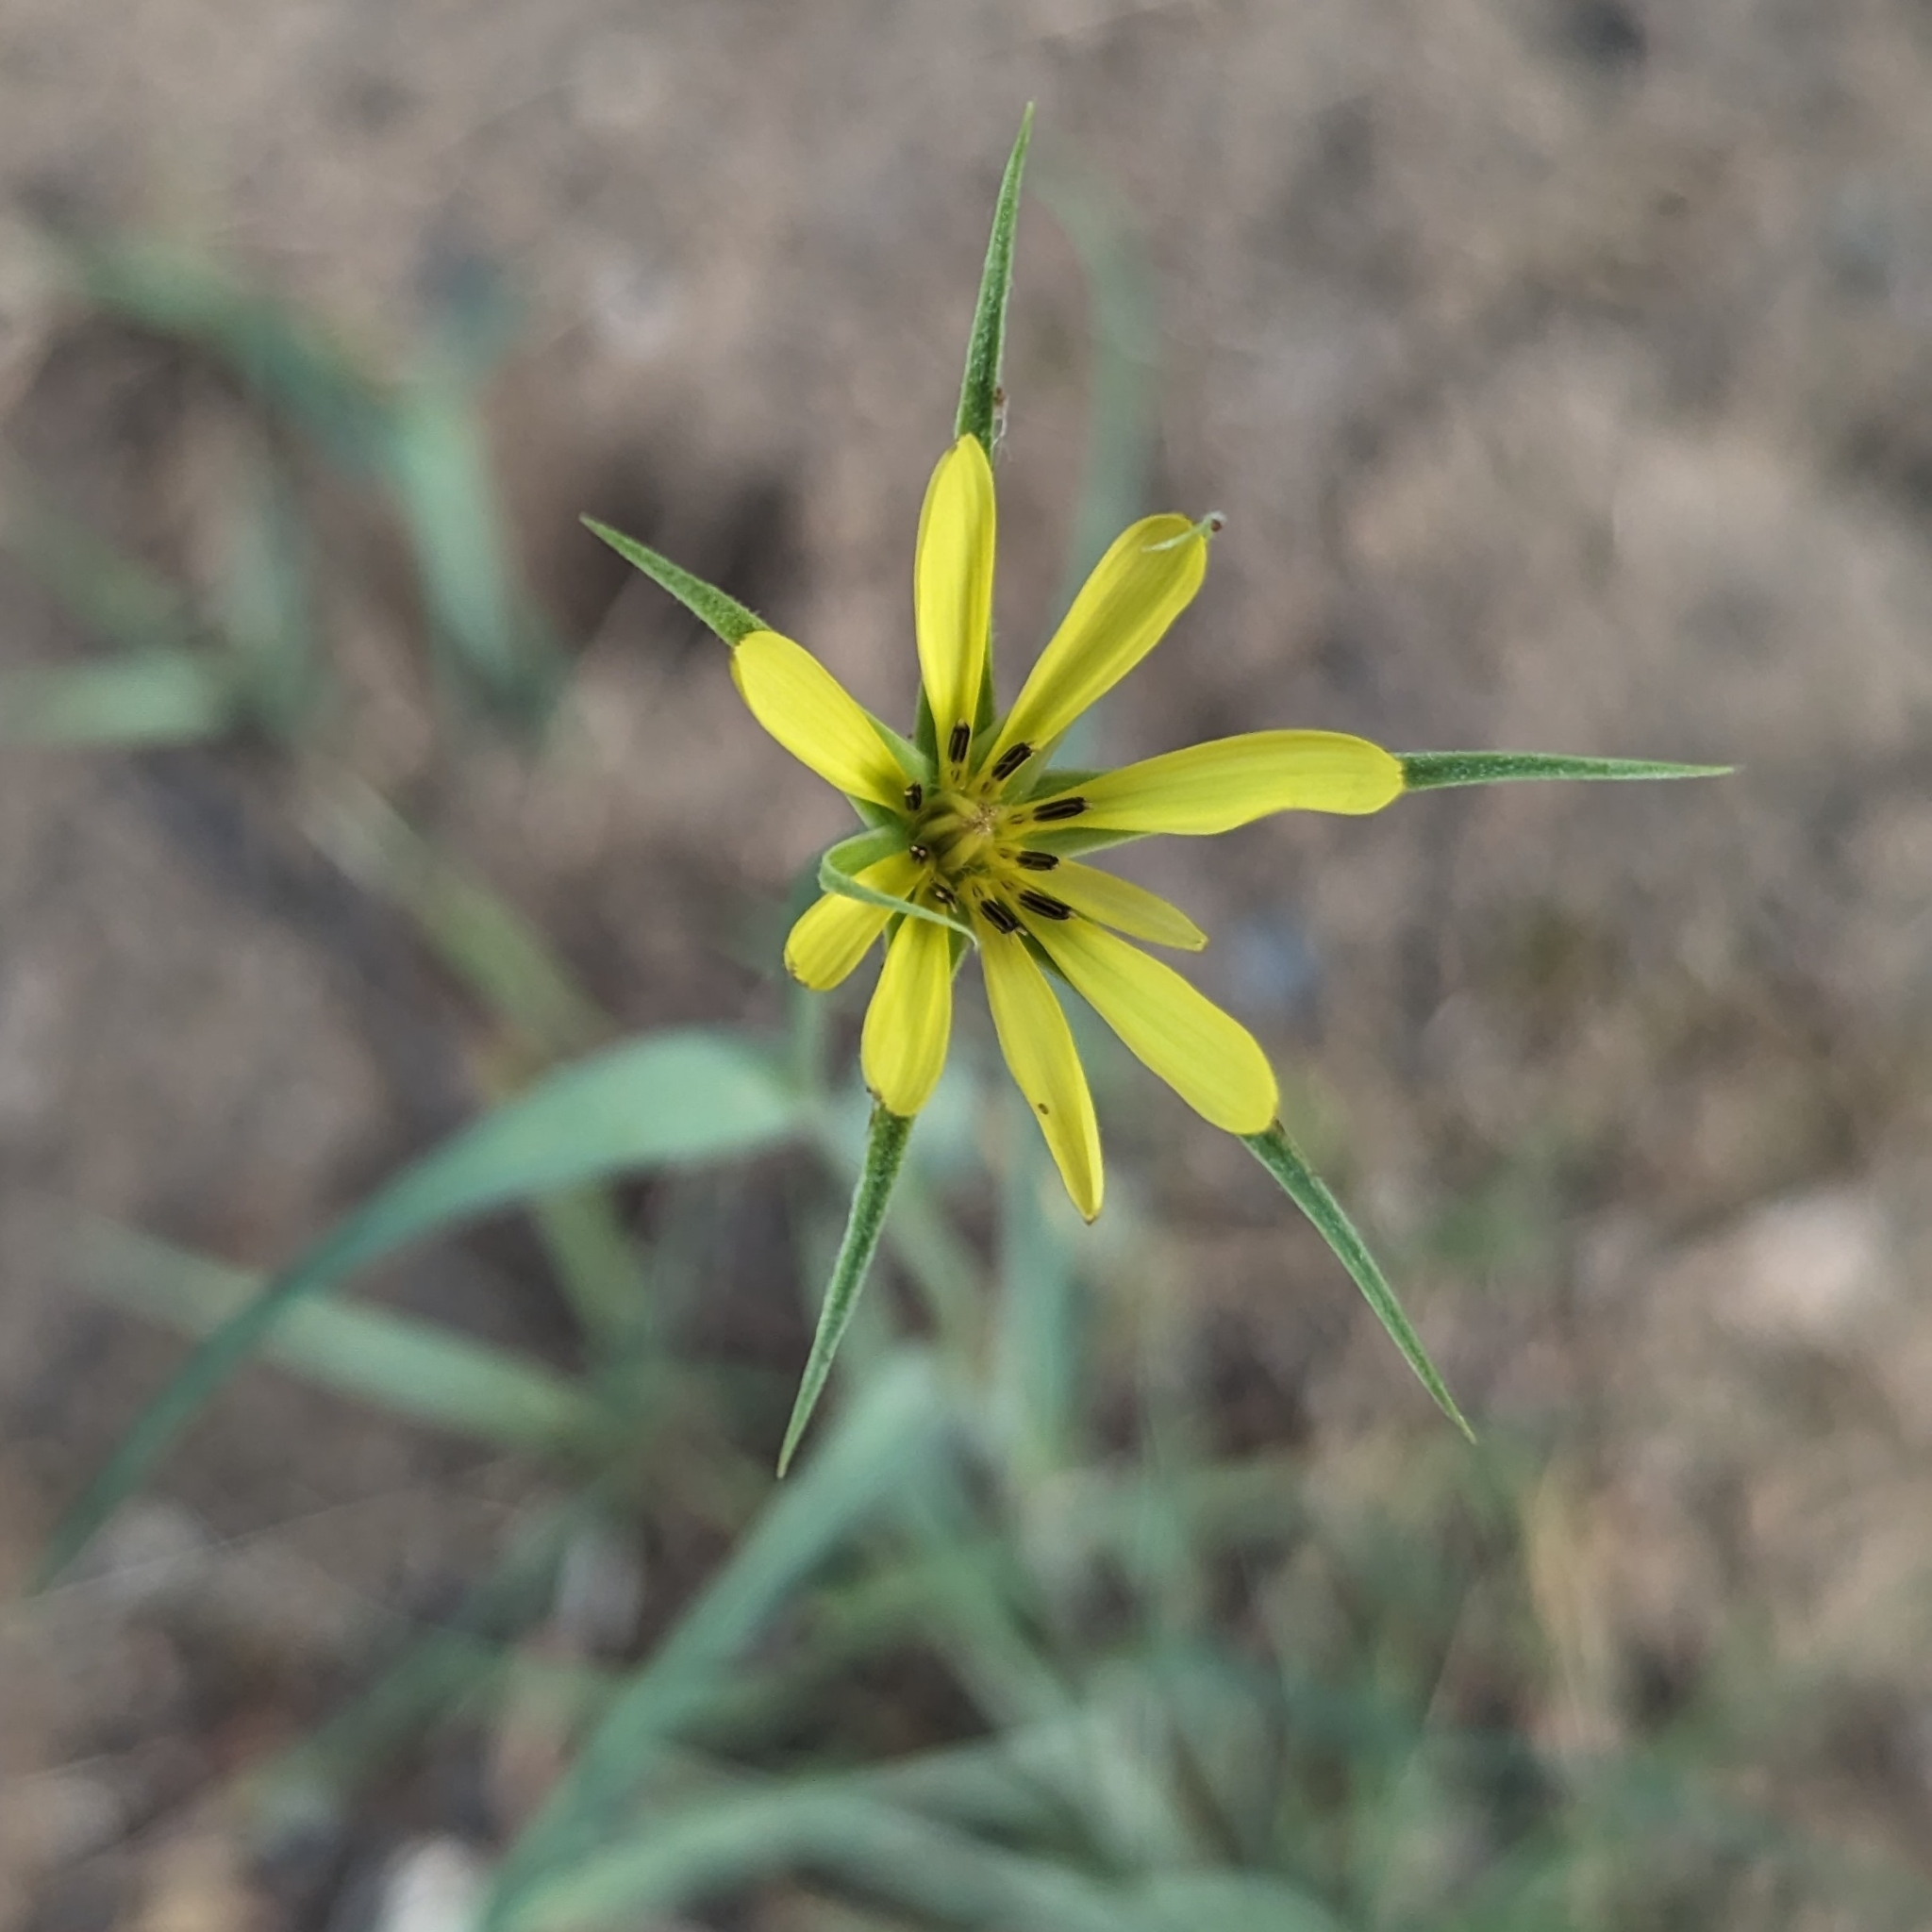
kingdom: Plantae
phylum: Tracheophyta
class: Magnoliopsida
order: Asterales
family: Asteraceae
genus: Tragopogon
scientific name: Tragopogon dubius
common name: Yellow salsify
